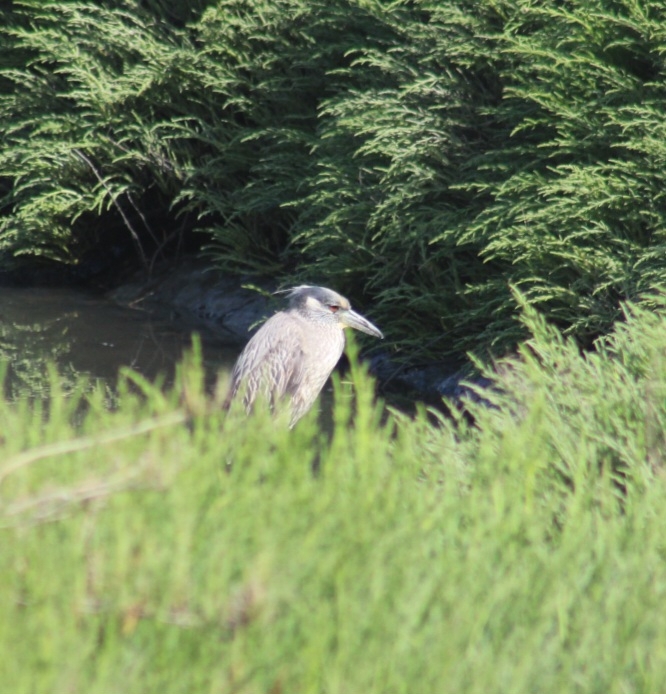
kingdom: Animalia
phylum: Chordata
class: Aves
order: Pelecaniformes
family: Ardeidae
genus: Nyctanassa
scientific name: Nyctanassa violacea
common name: Yellow-crowned night heron
